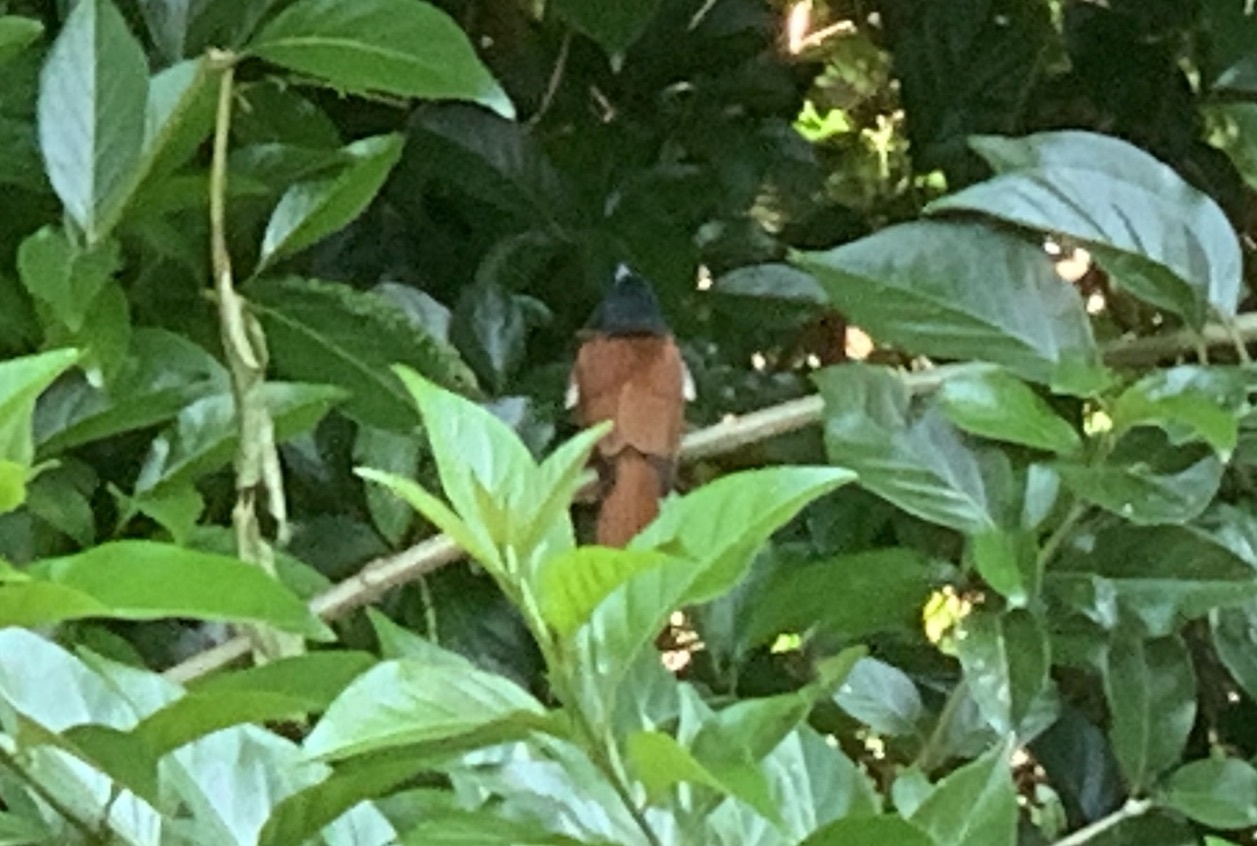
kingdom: Animalia
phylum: Chordata
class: Aves
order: Passeriformes
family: Monarchidae
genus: Terpsiphone
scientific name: Terpsiphone viridis
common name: African paradise flycatcher
